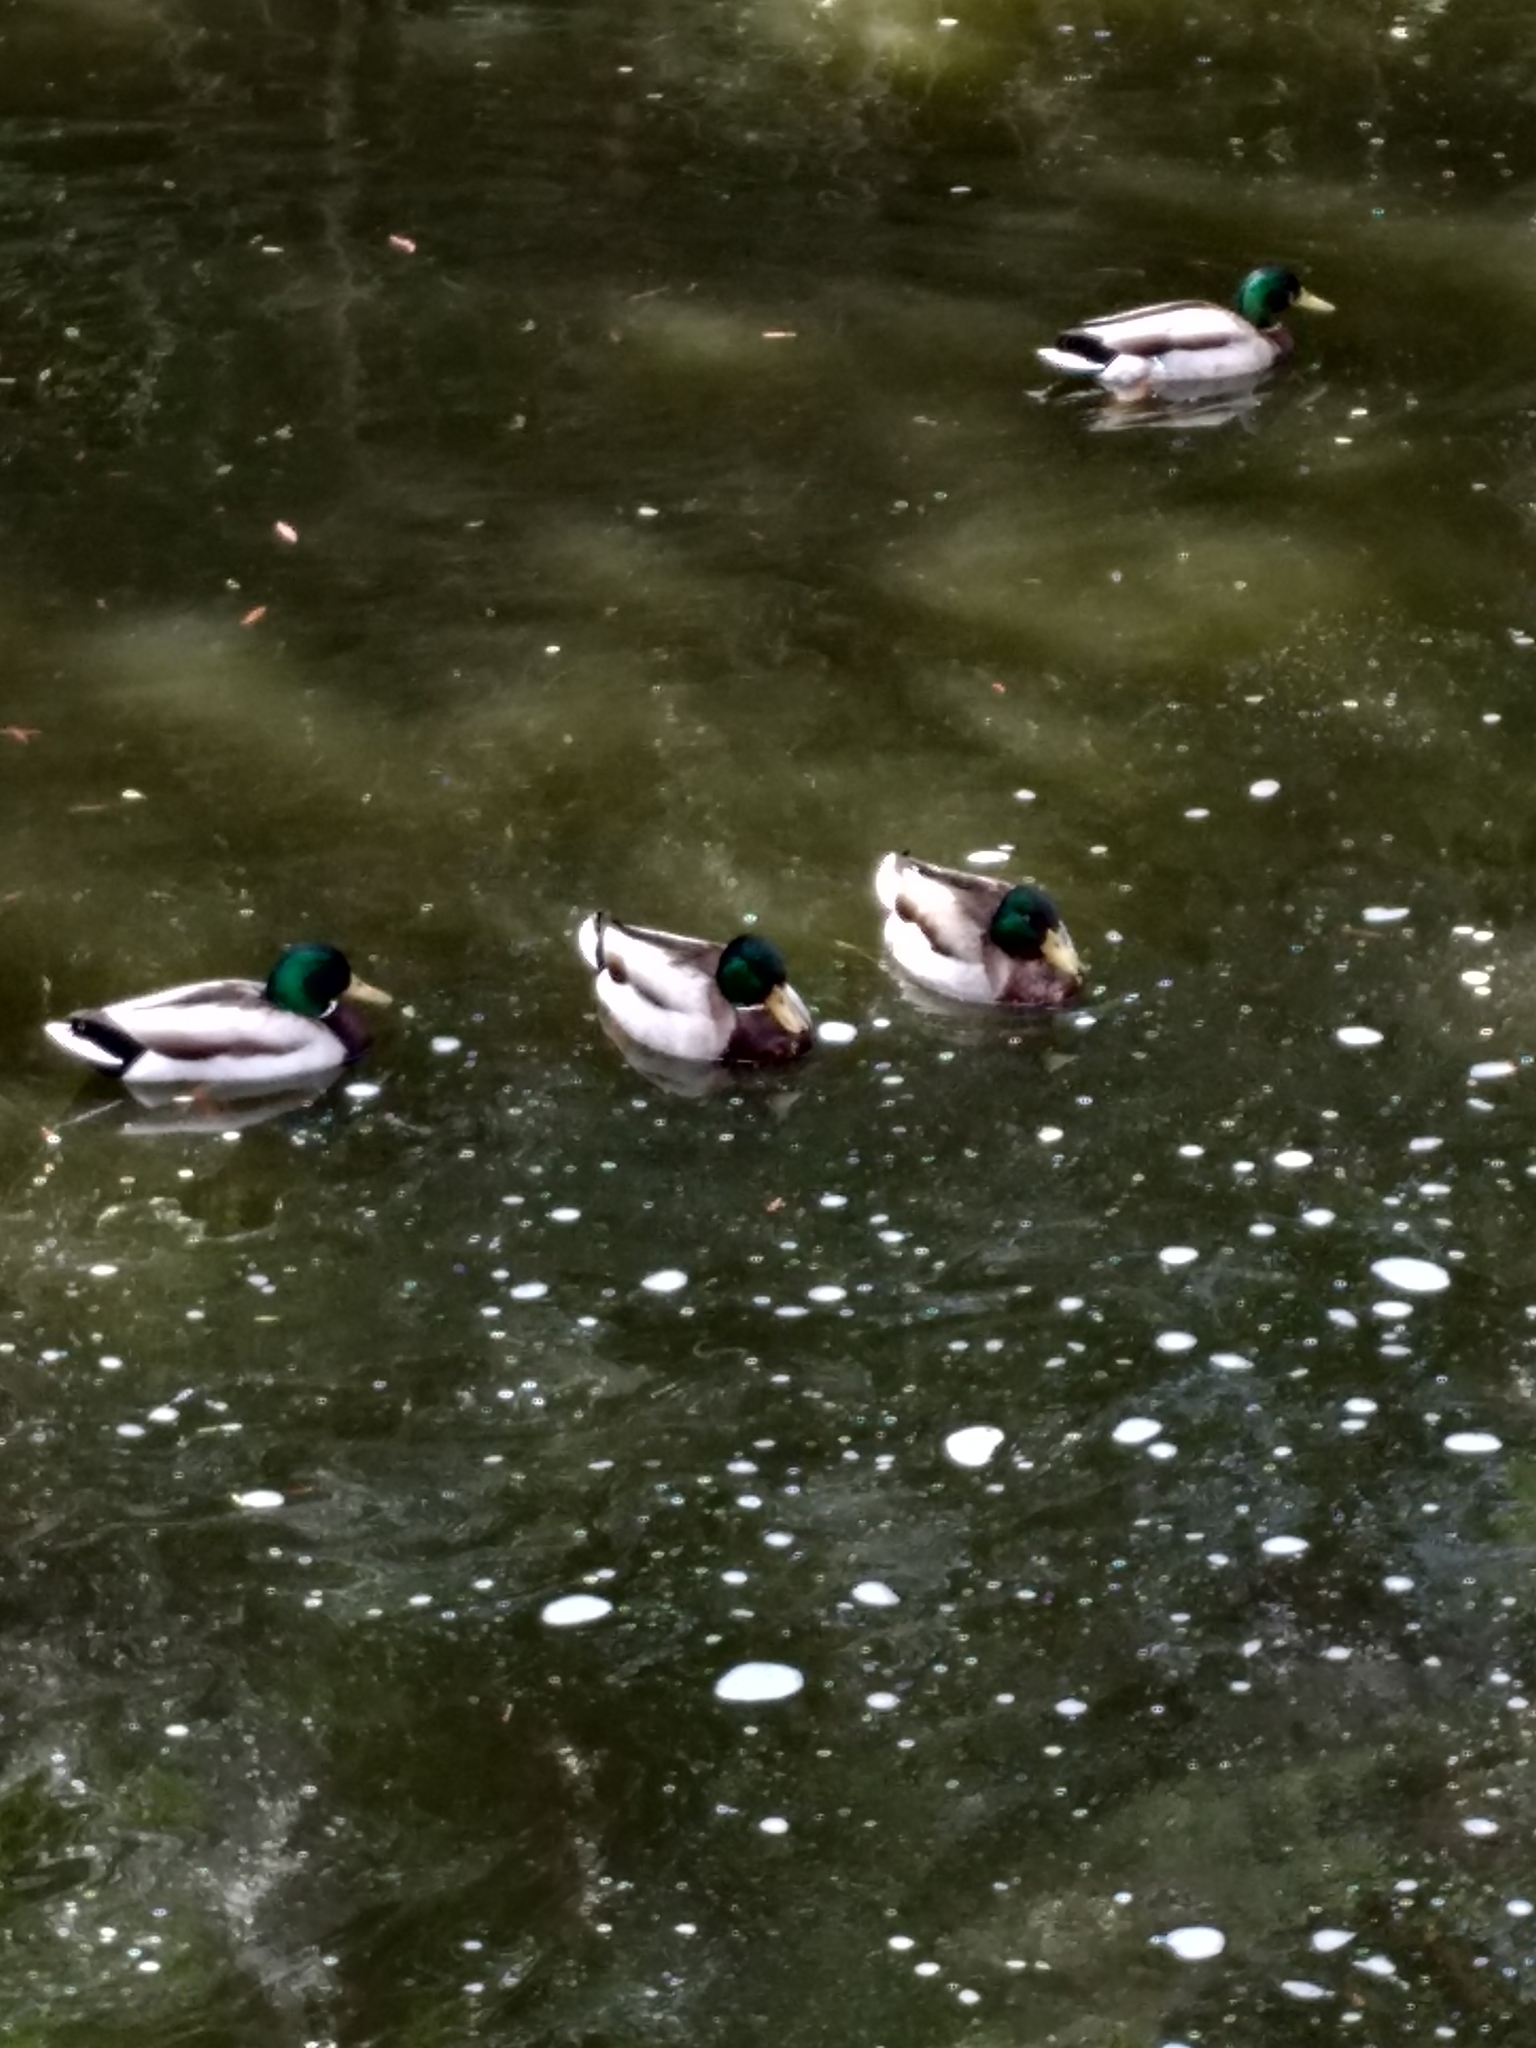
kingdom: Animalia
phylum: Chordata
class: Aves
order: Anseriformes
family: Anatidae
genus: Anas
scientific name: Anas platyrhynchos
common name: Mallard
